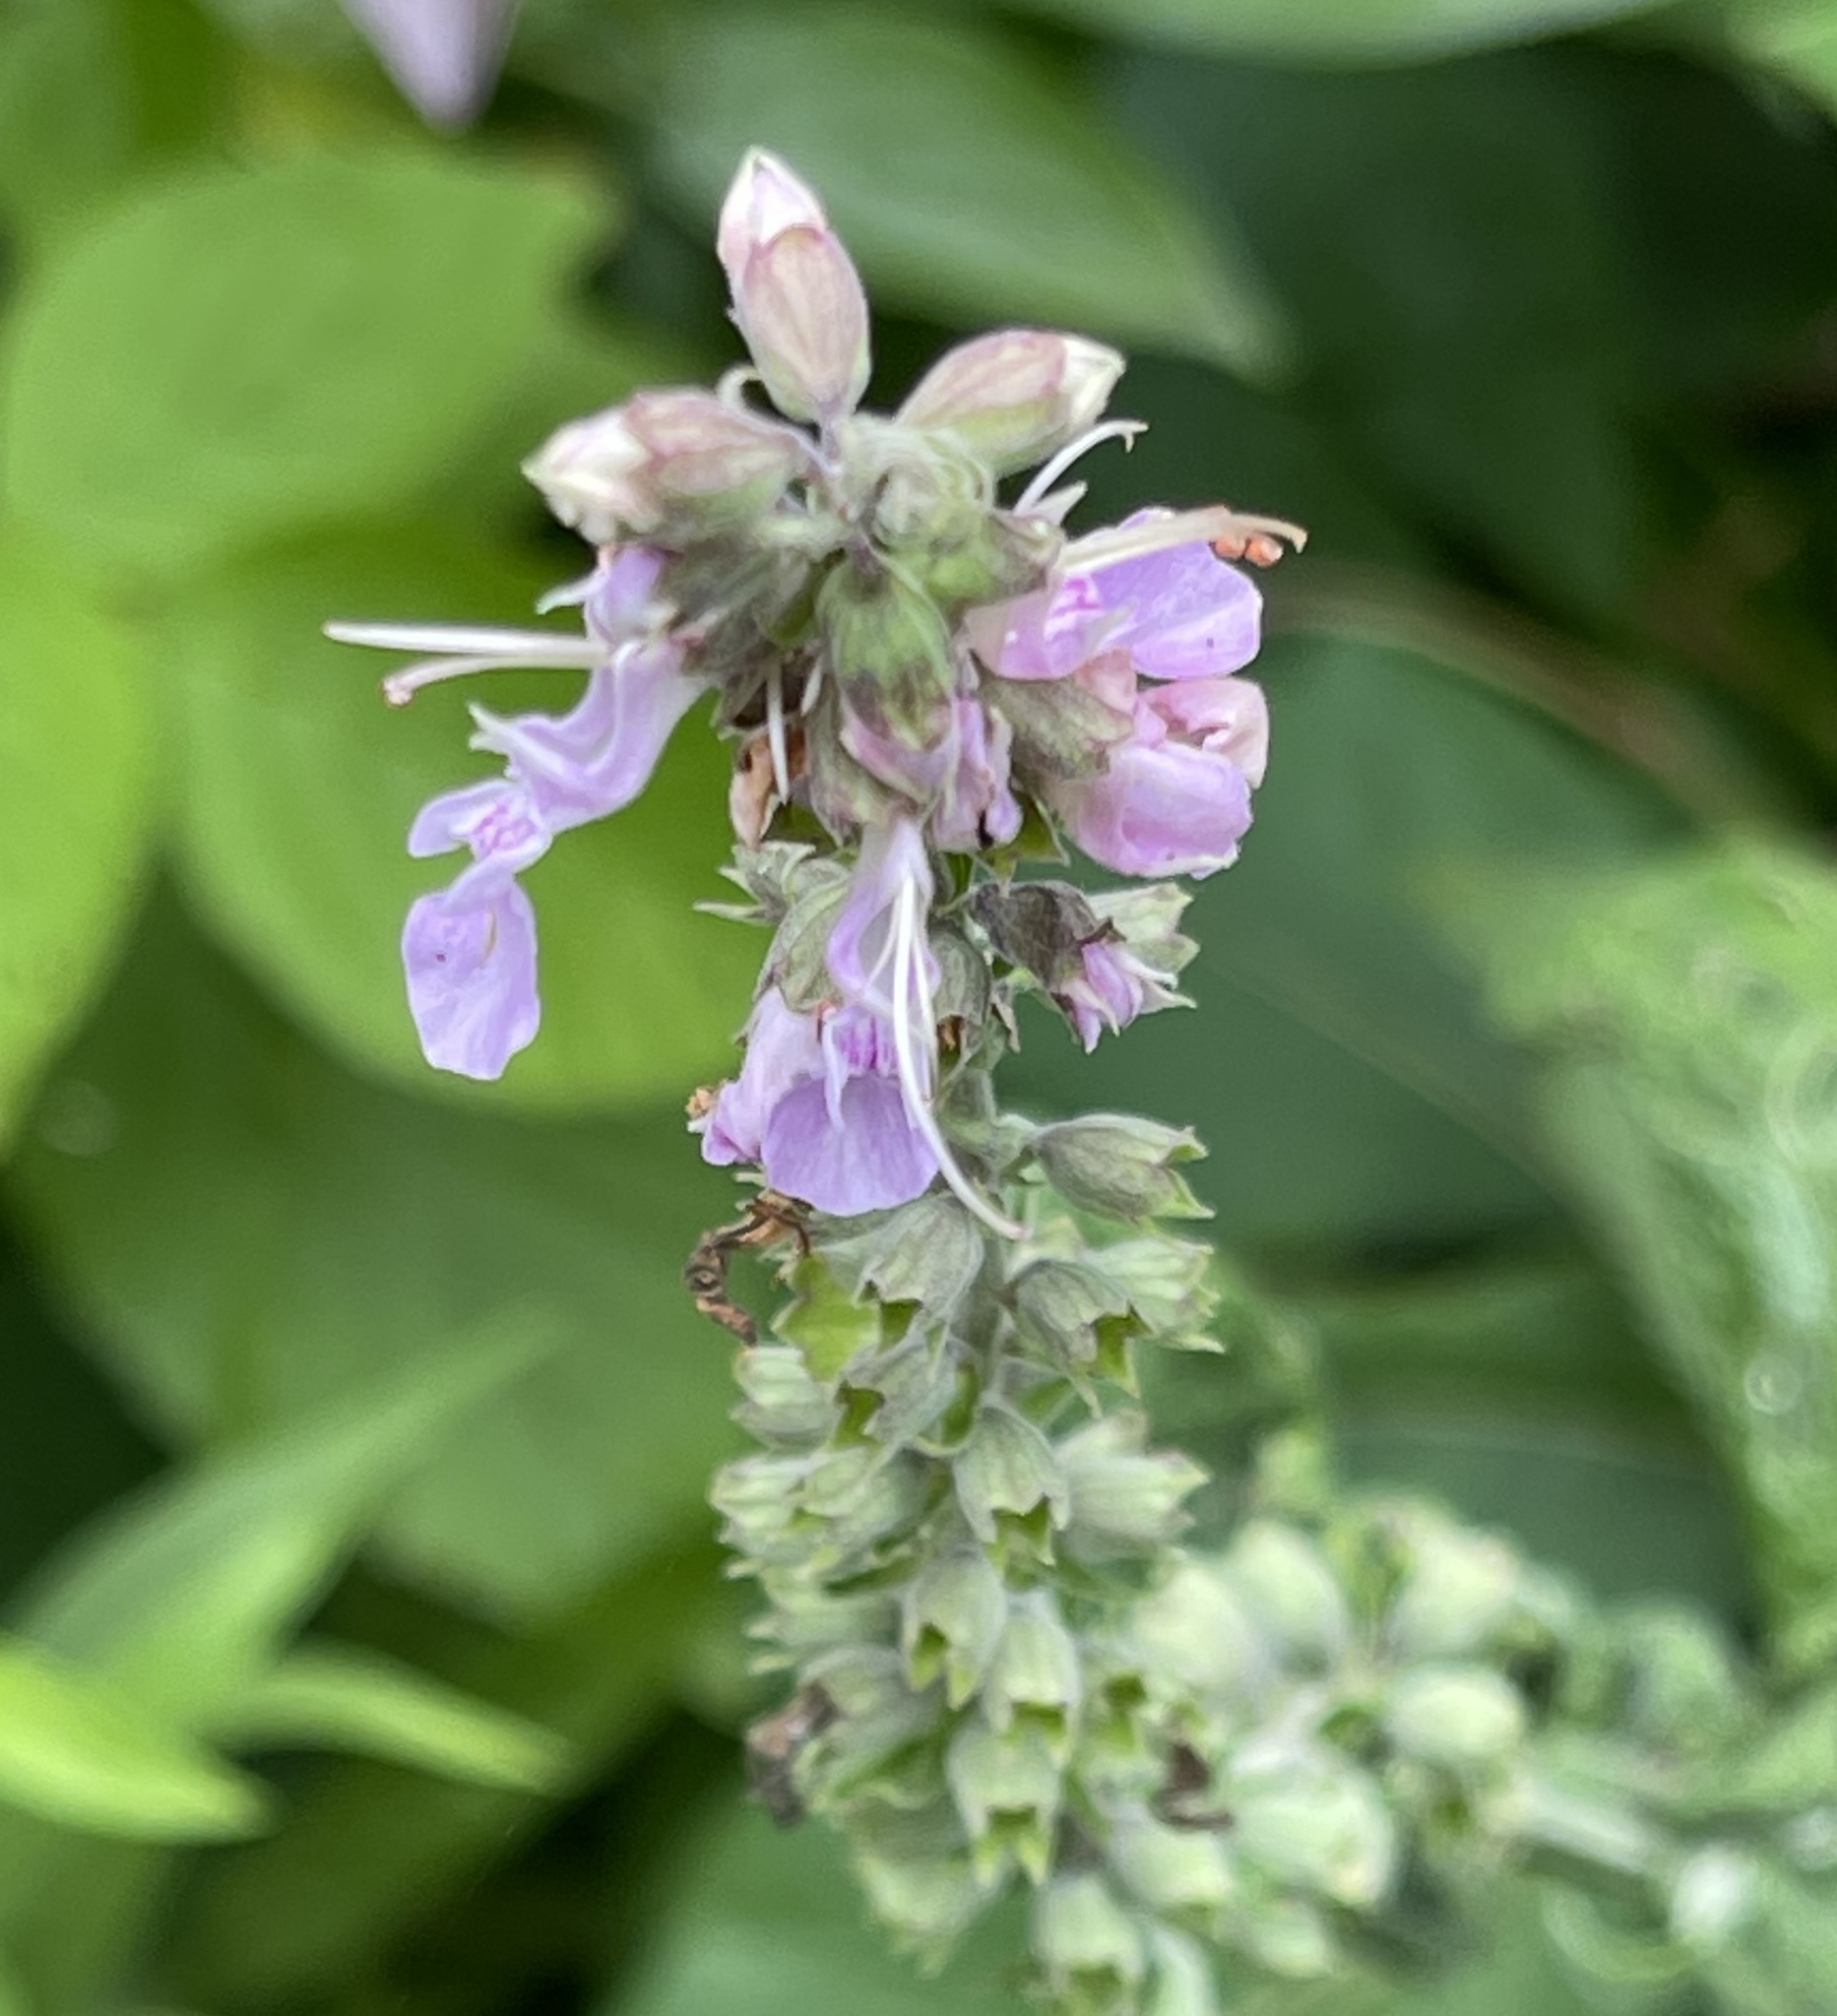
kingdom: Plantae
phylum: Tracheophyta
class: Magnoliopsida
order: Lamiales
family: Lamiaceae
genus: Teucrium
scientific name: Teucrium canadense
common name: American germander
